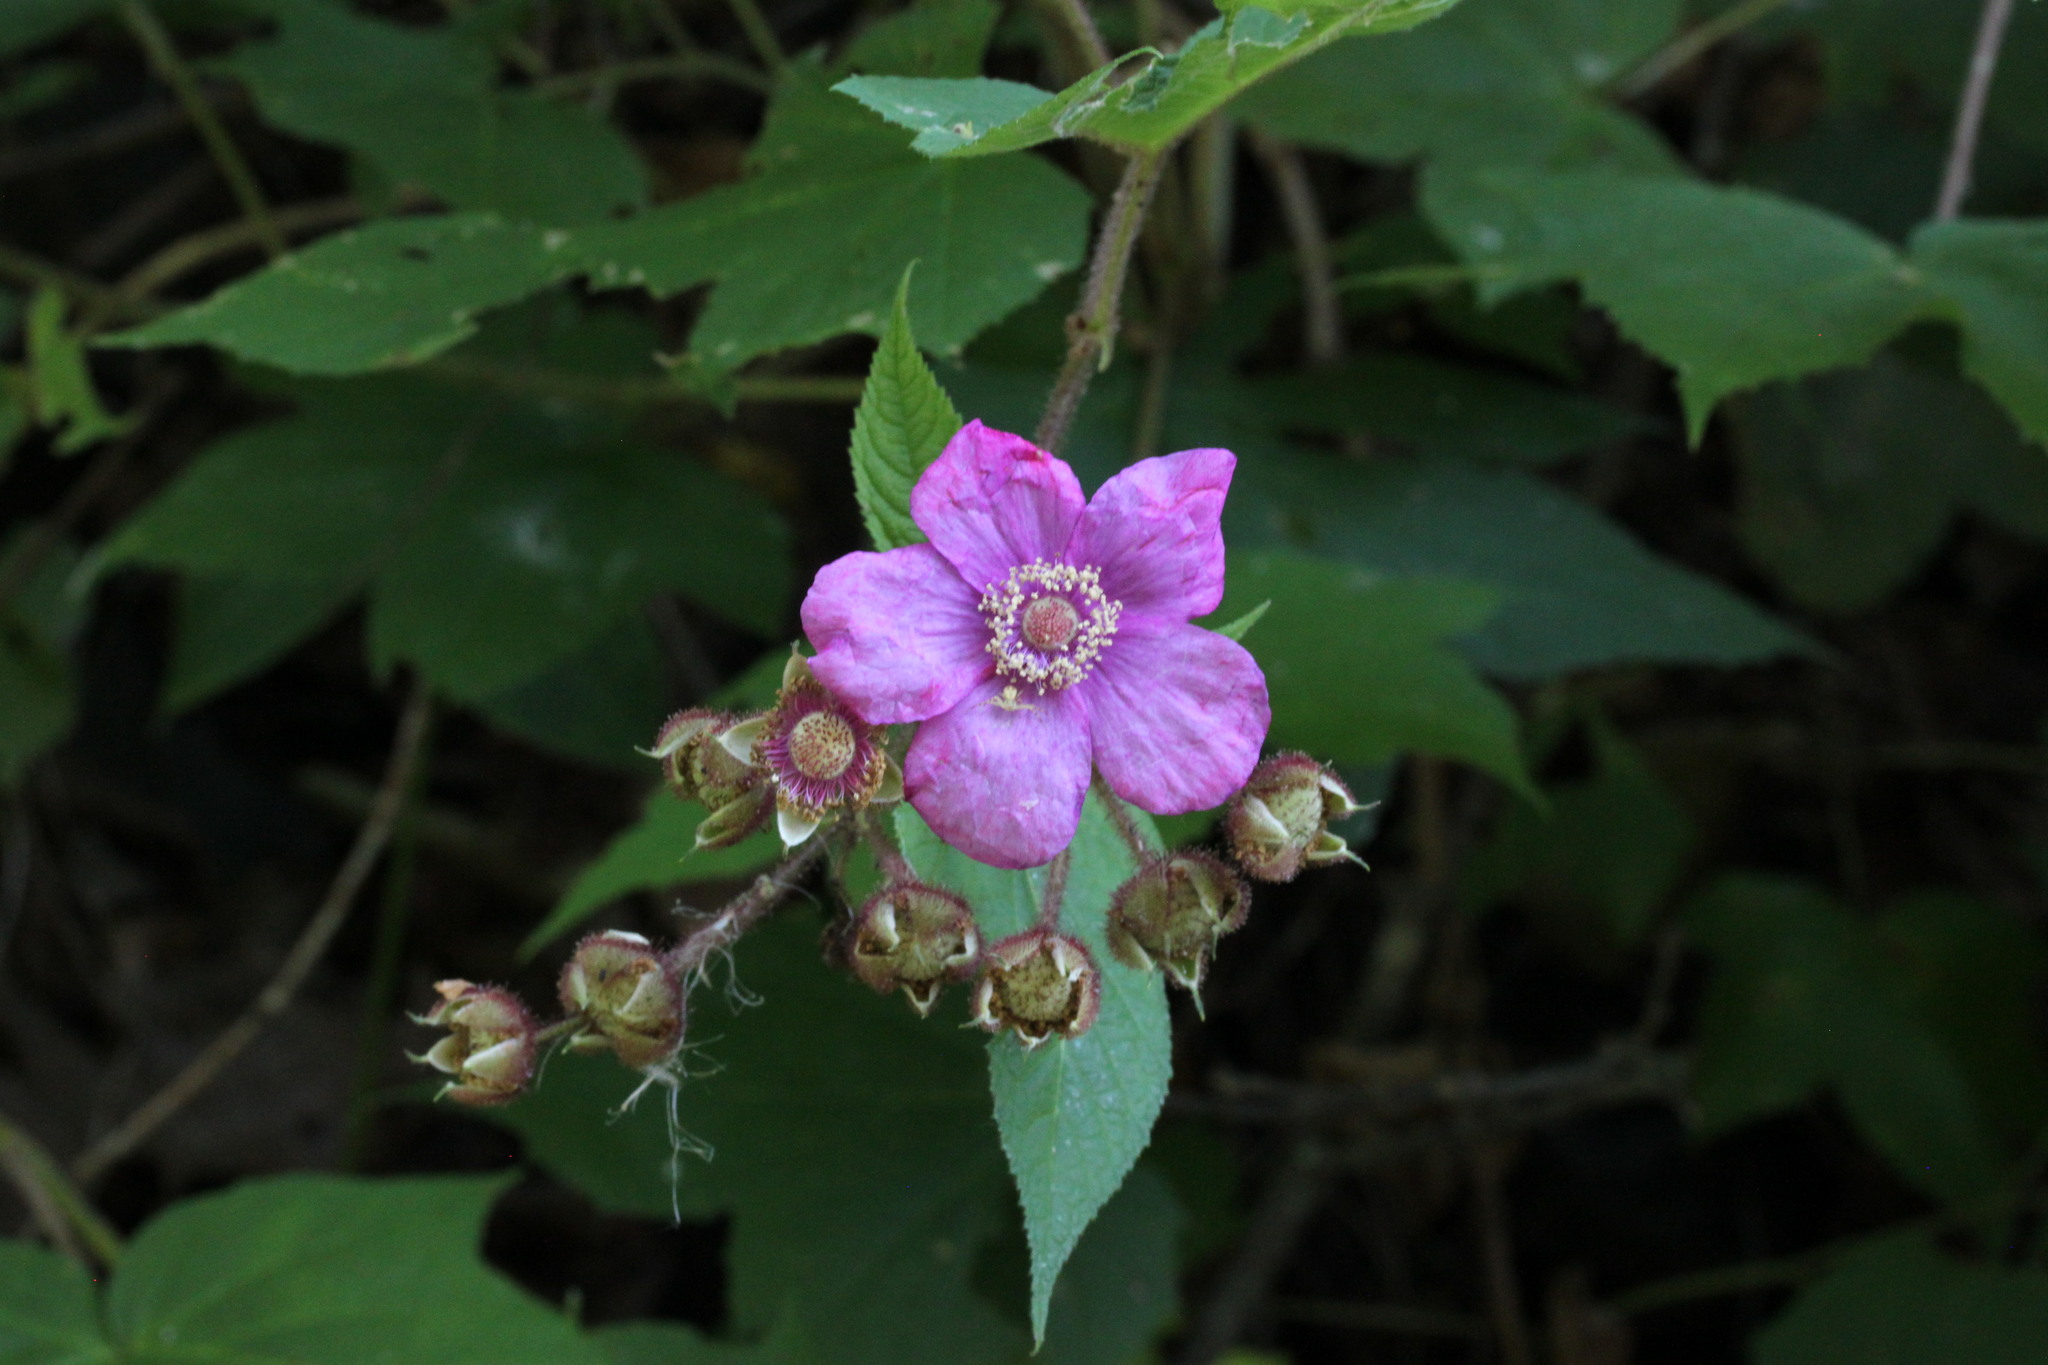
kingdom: Plantae
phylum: Tracheophyta
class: Magnoliopsida
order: Rosales
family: Rosaceae
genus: Rubus
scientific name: Rubus odoratus
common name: Purple-flowered raspberry
